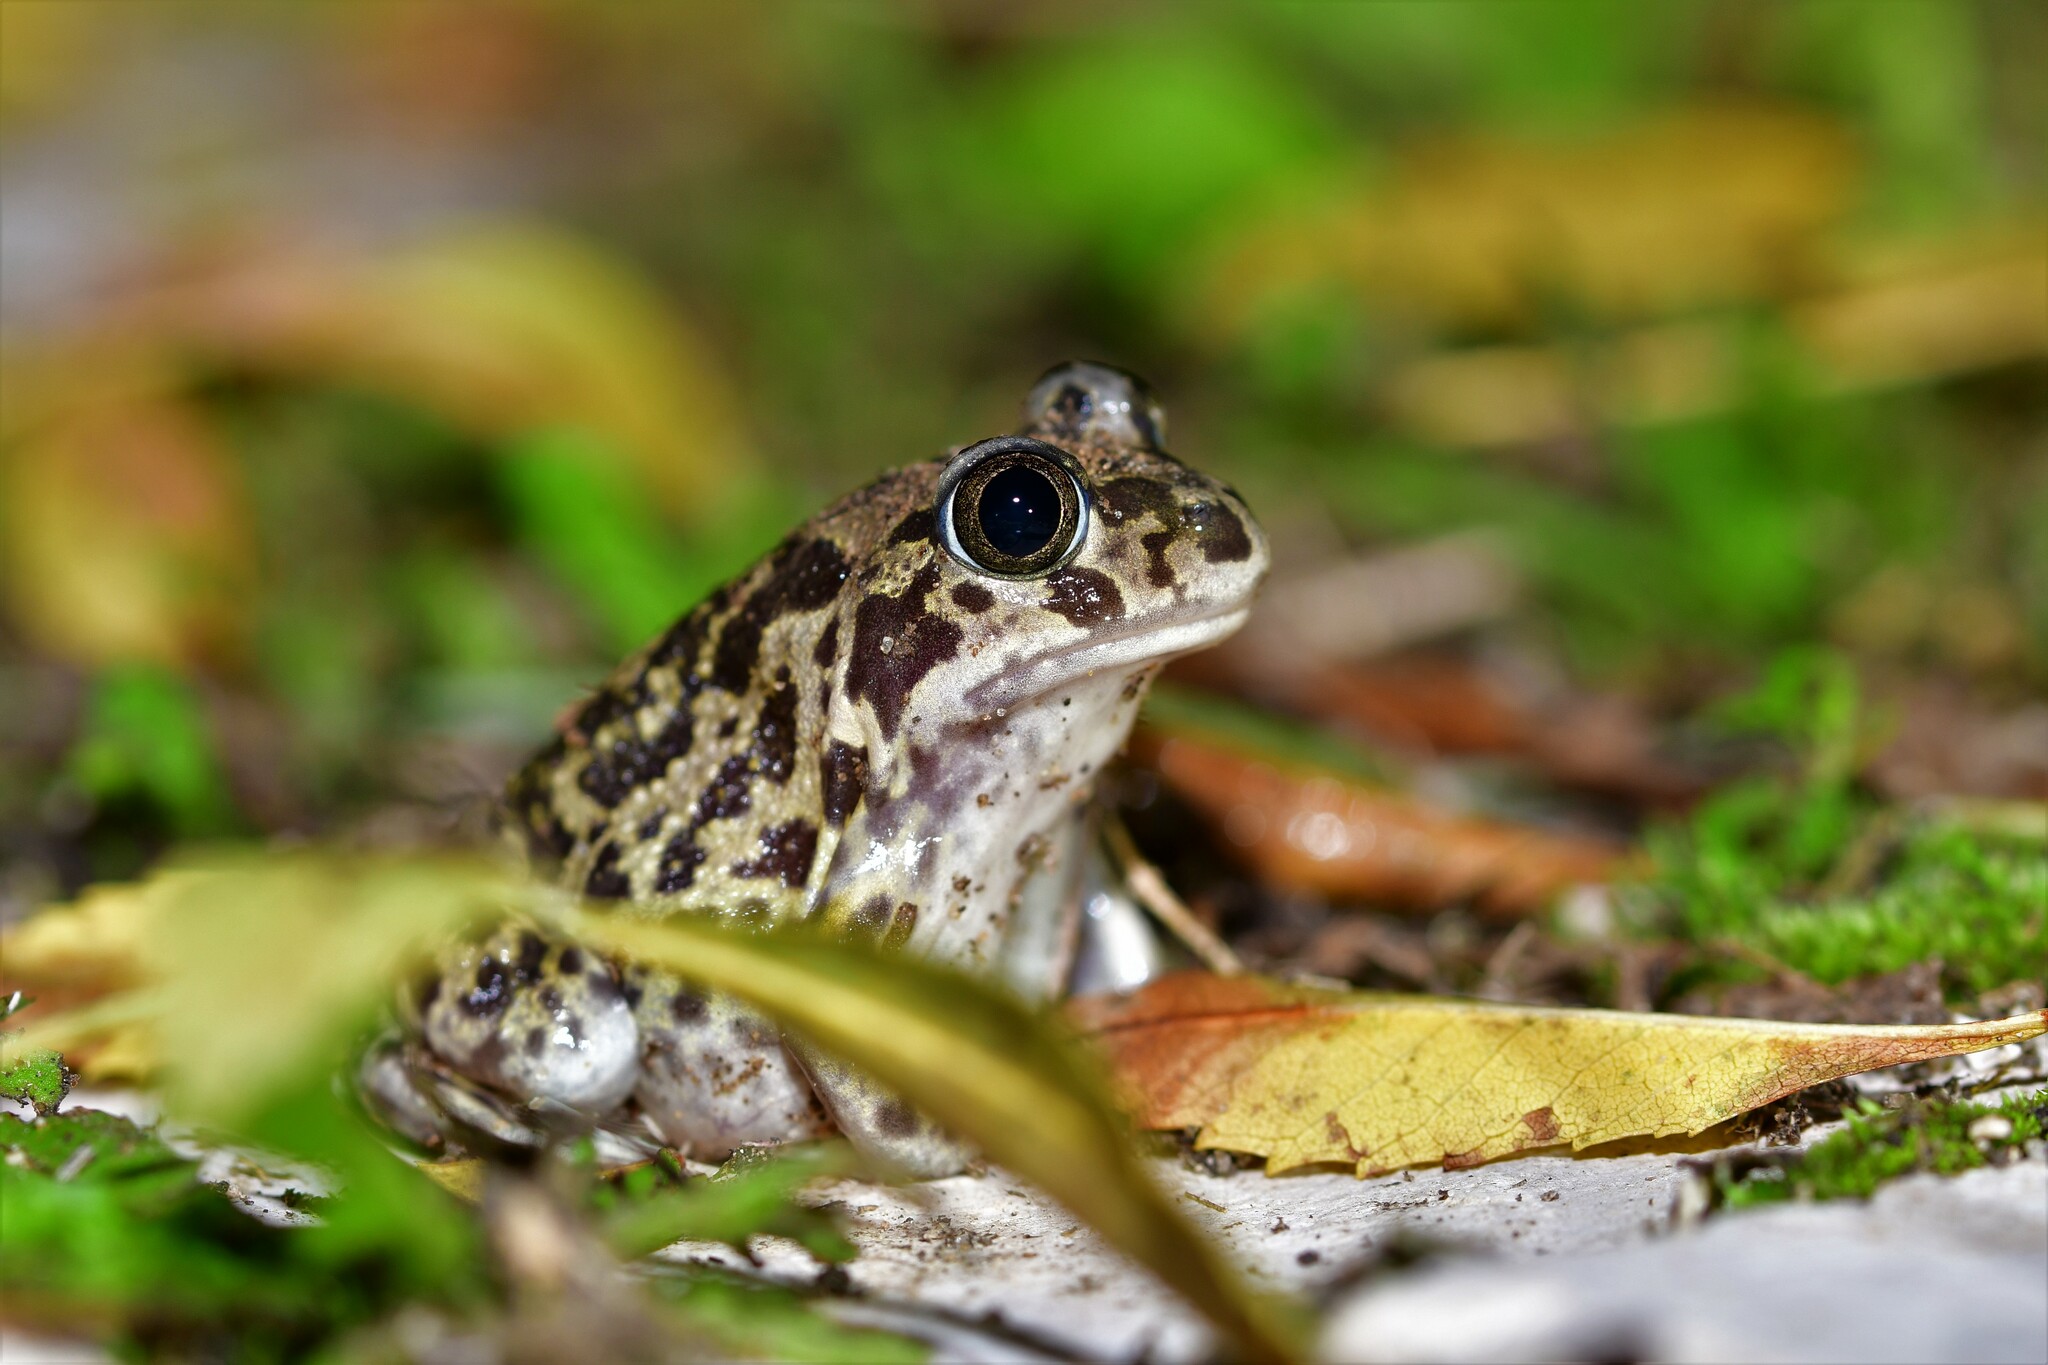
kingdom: Animalia
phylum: Chordata
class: Amphibia
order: Anura
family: Pelobatidae
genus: Pelobates
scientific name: Pelobates cultripes
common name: Western spadefoot
